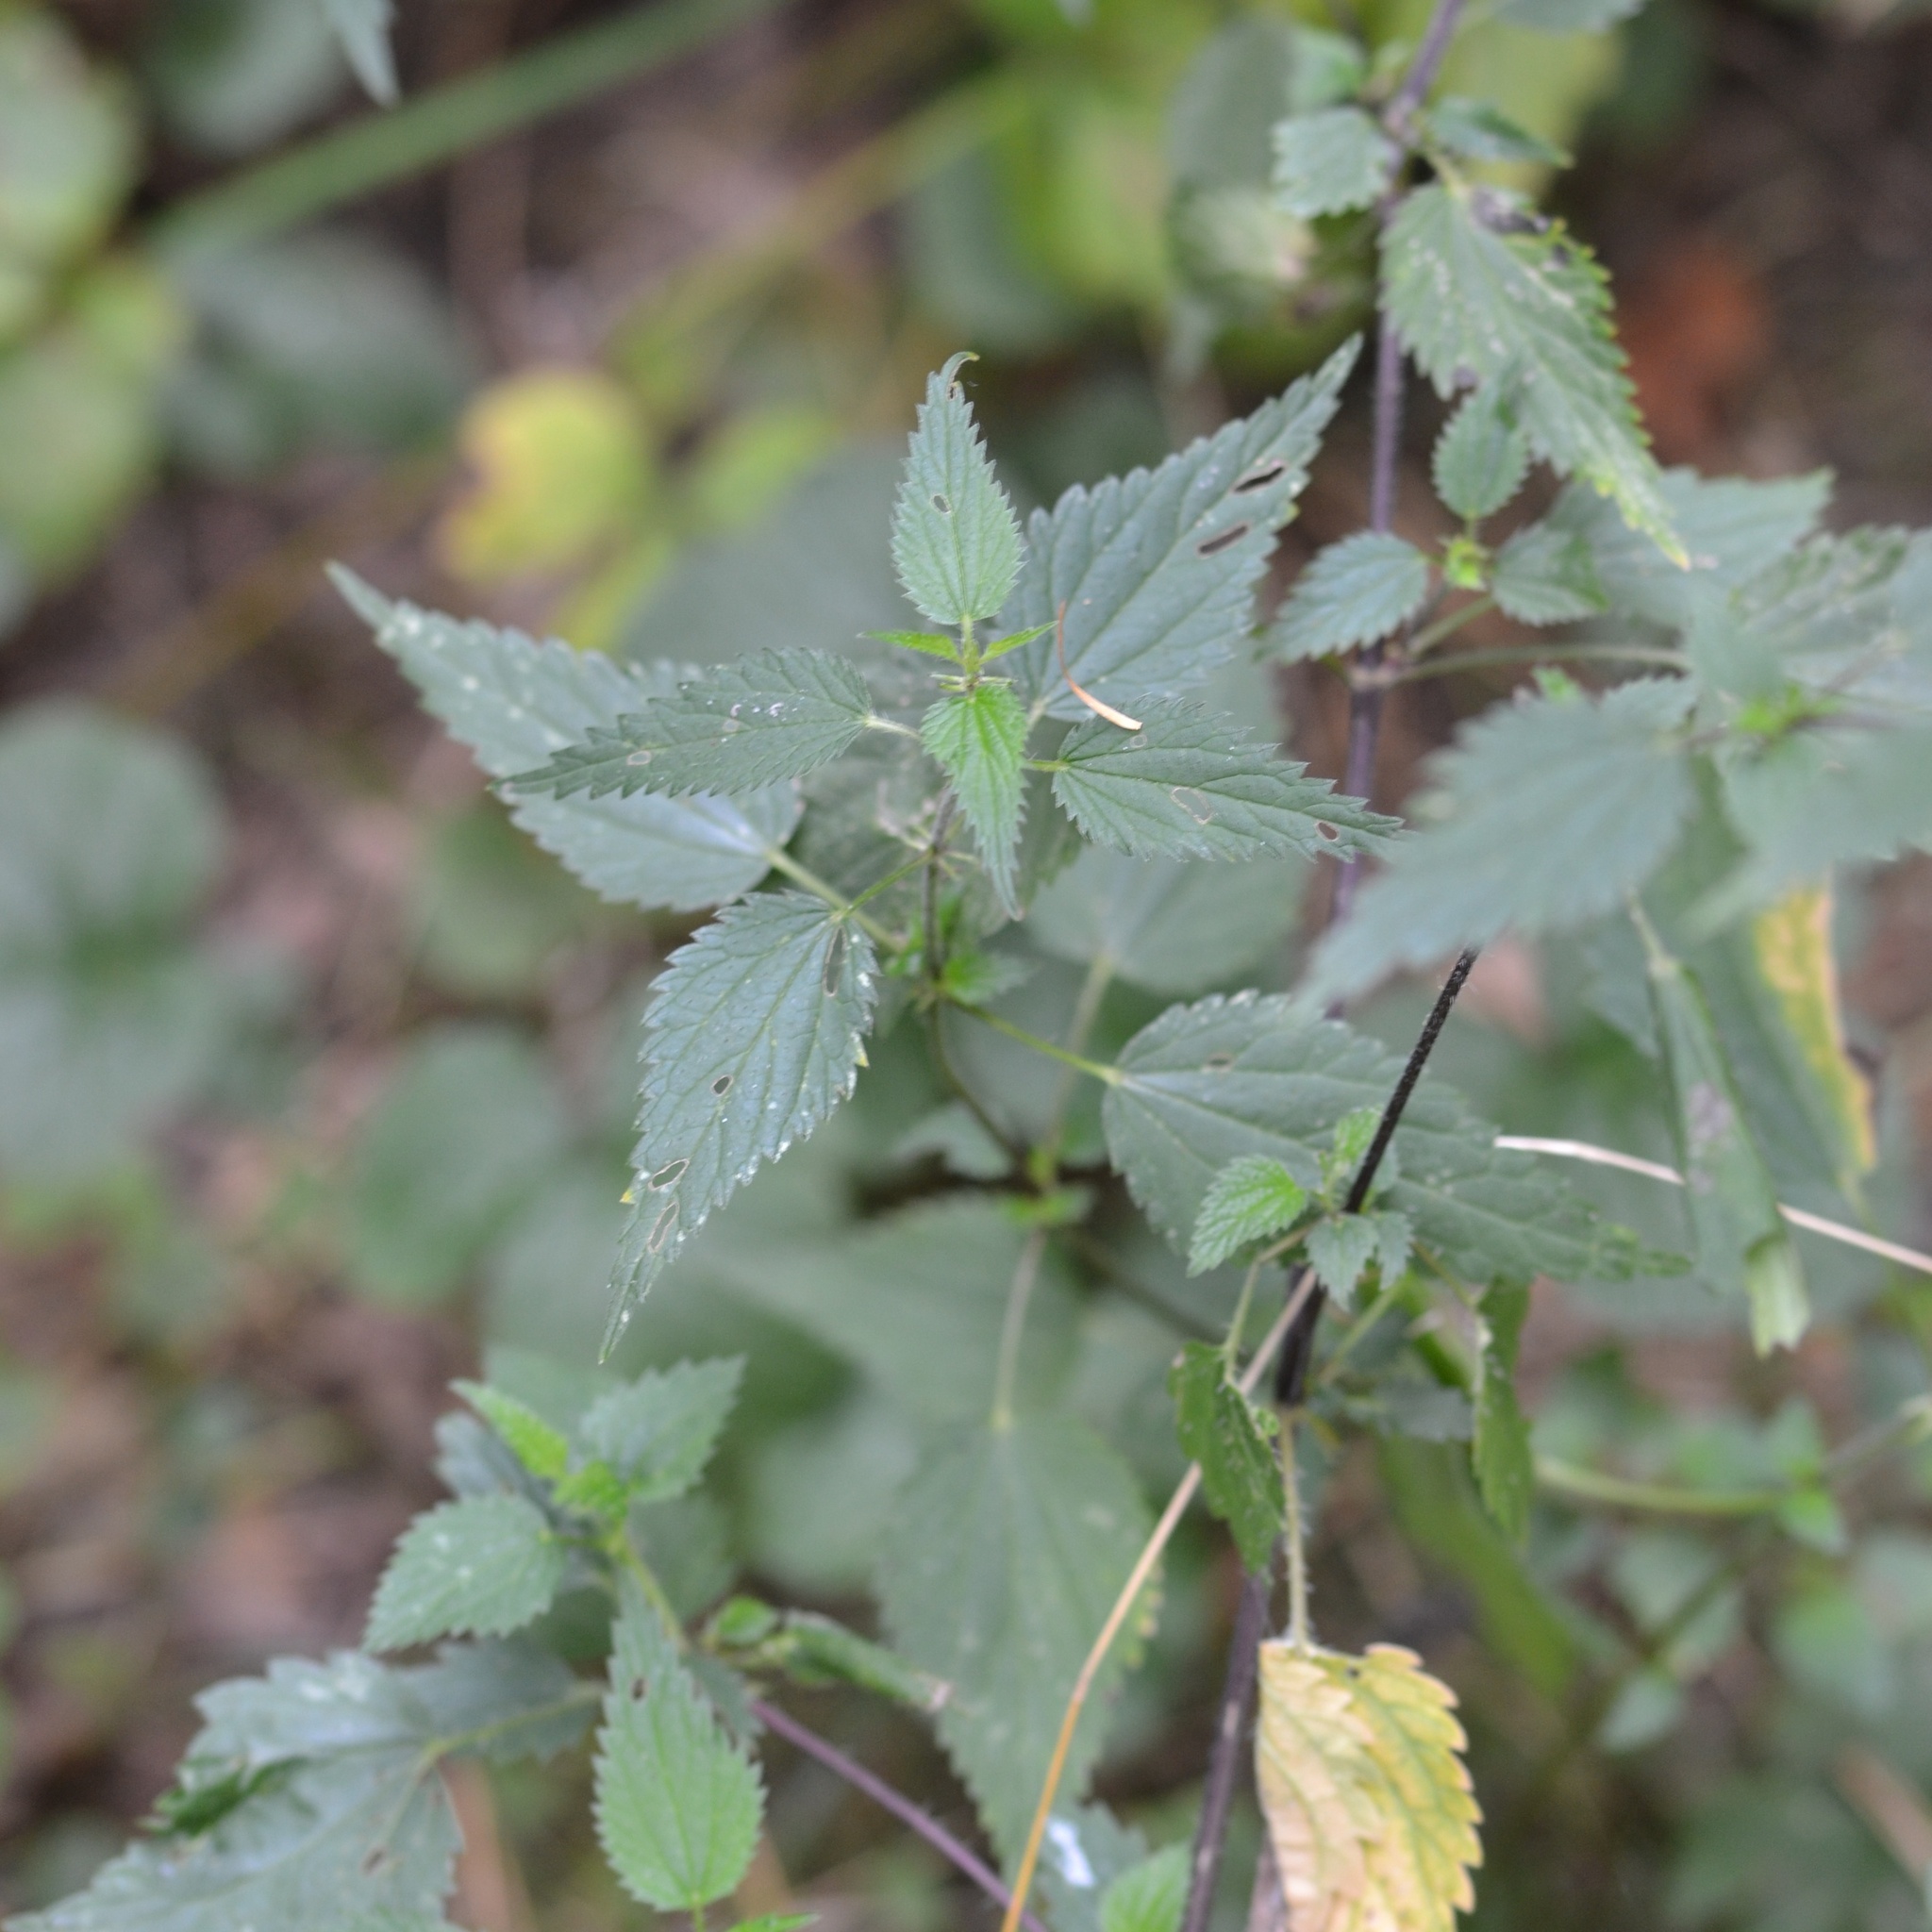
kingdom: Plantae
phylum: Tracheophyta
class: Magnoliopsida
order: Rosales
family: Urticaceae
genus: Urtica
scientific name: Urtica dioica
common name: Common nettle
